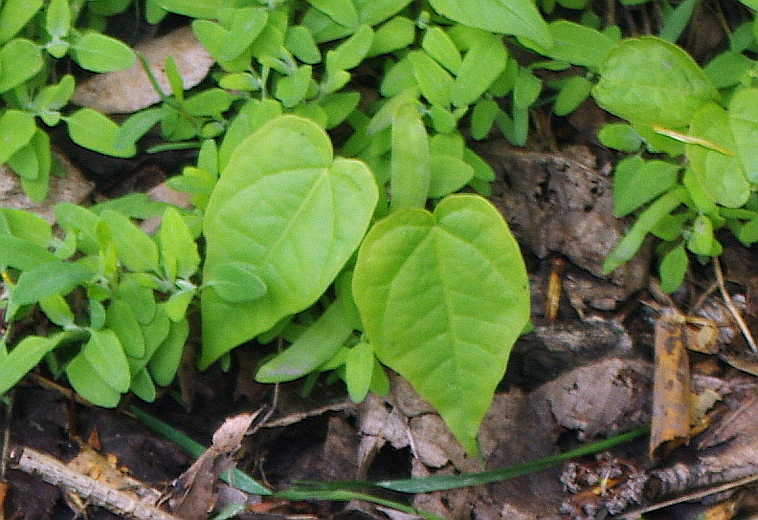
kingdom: Plantae
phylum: Tracheophyta
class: Magnoliopsida
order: Sapindales
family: Sapindaceae
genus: Acer
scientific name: Acer platanoides
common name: Norway maple
